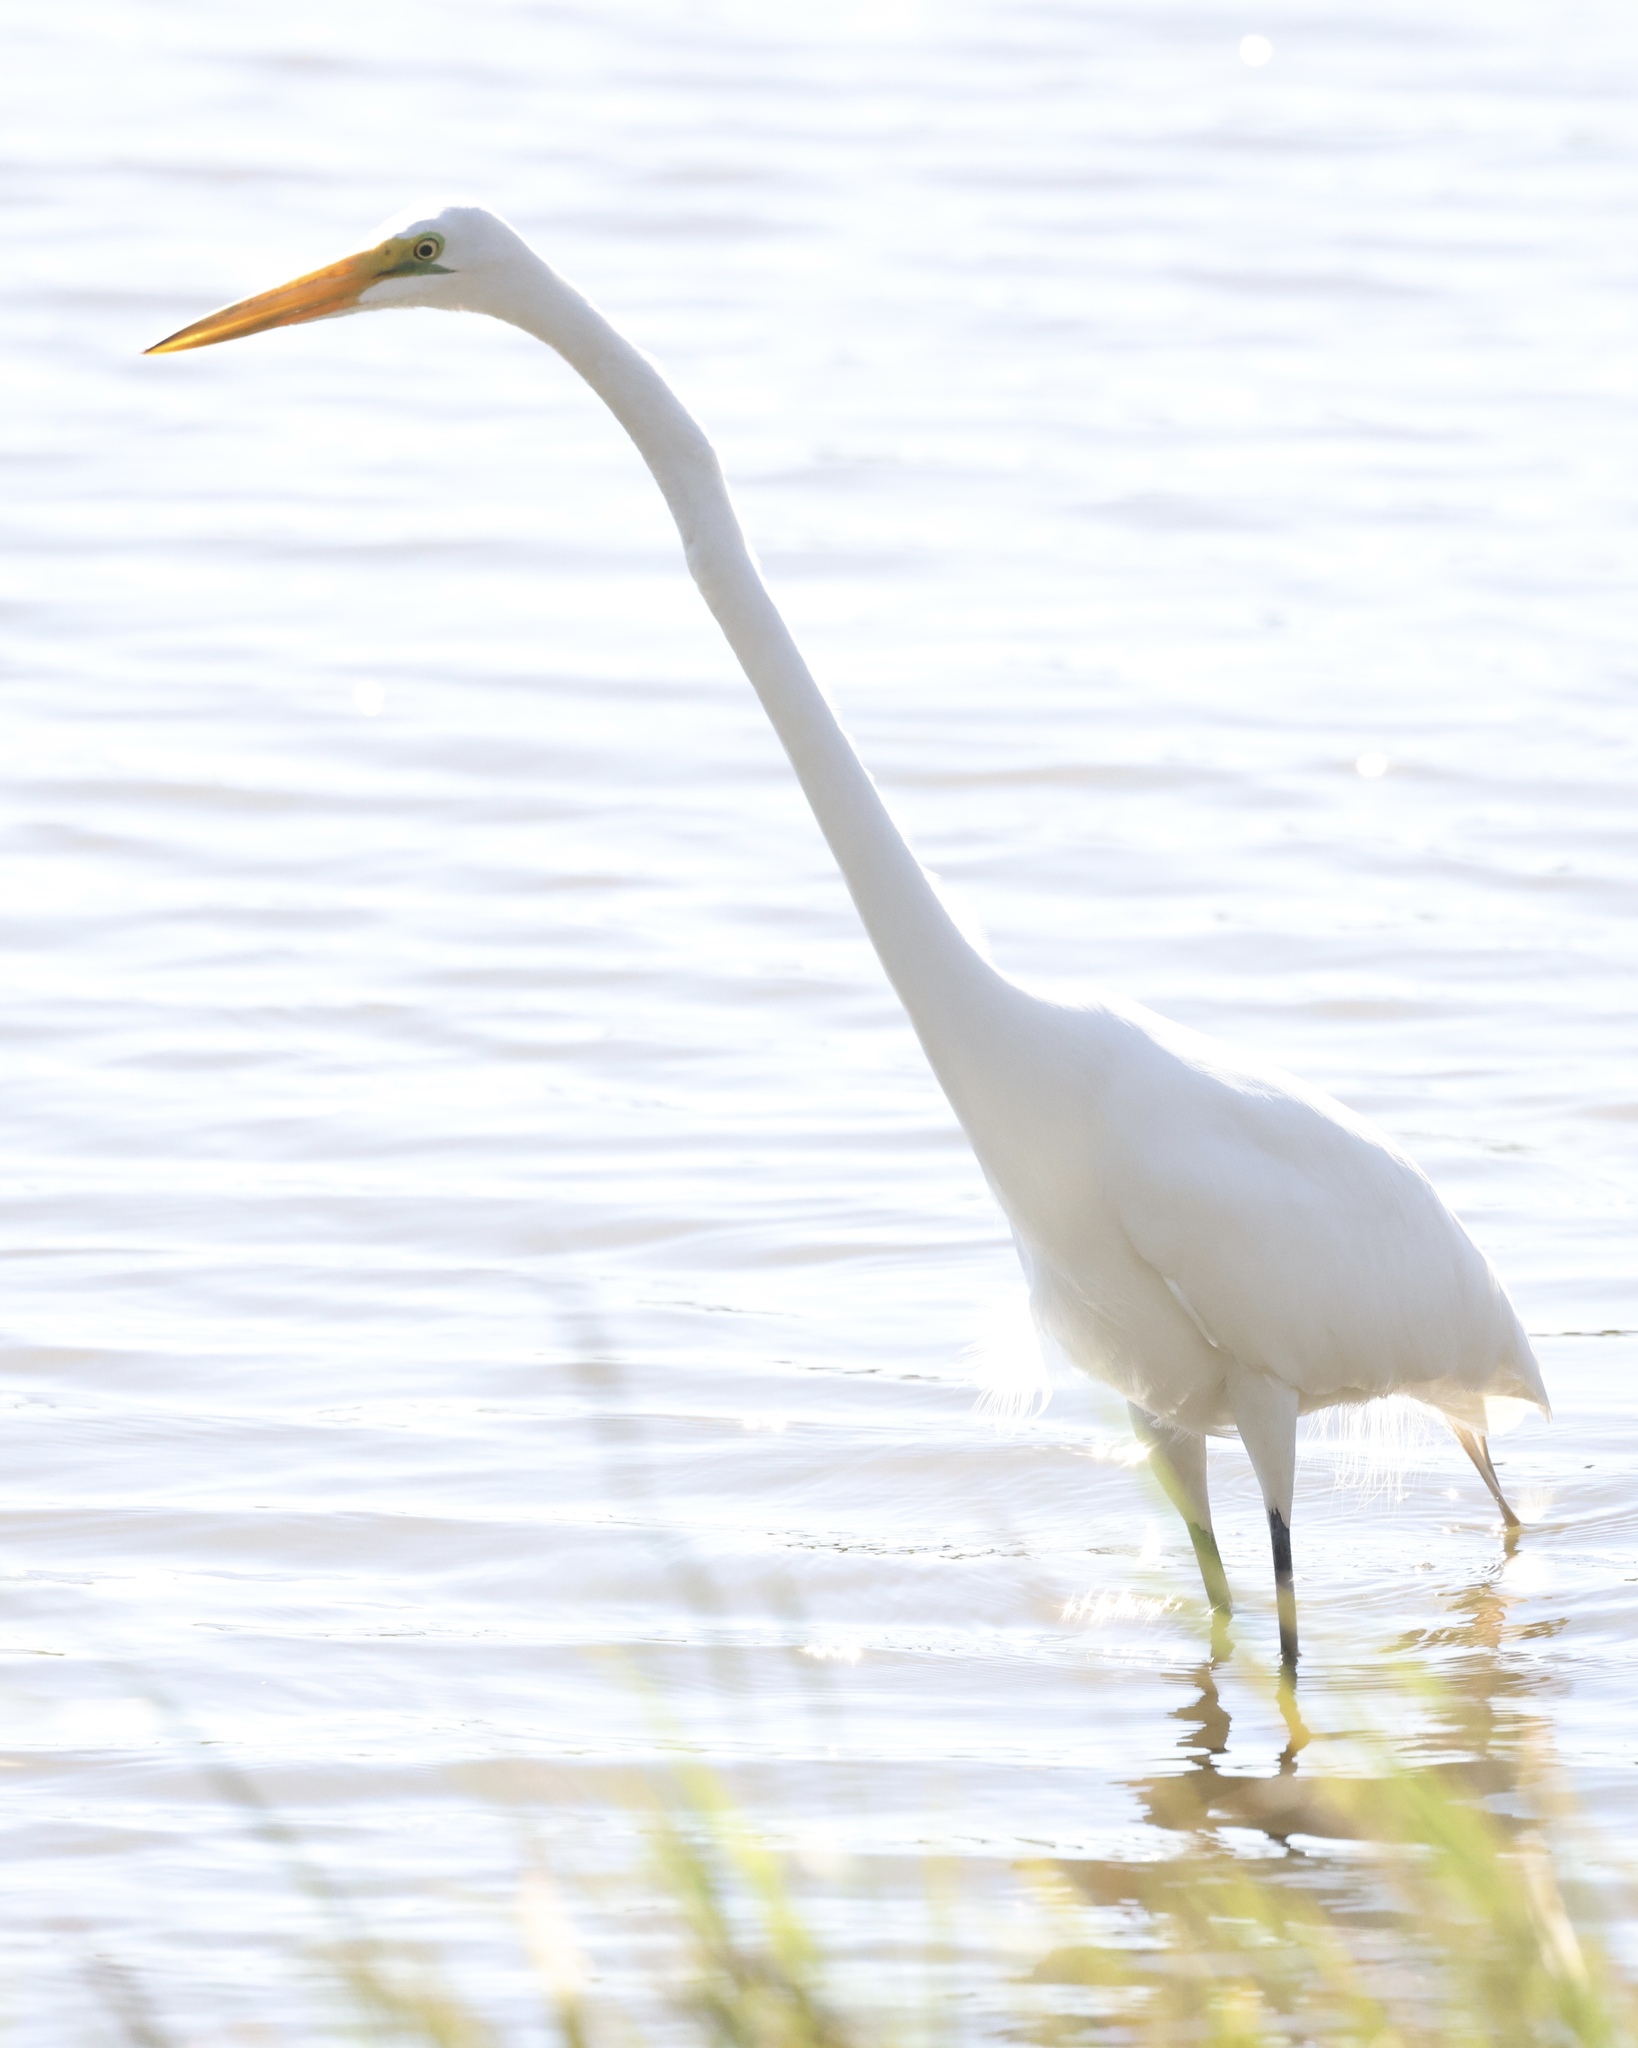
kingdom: Animalia
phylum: Chordata
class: Aves
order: Pelecaniformes
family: Ardeidae
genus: Ardea
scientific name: Ardea alba
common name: Great egret
